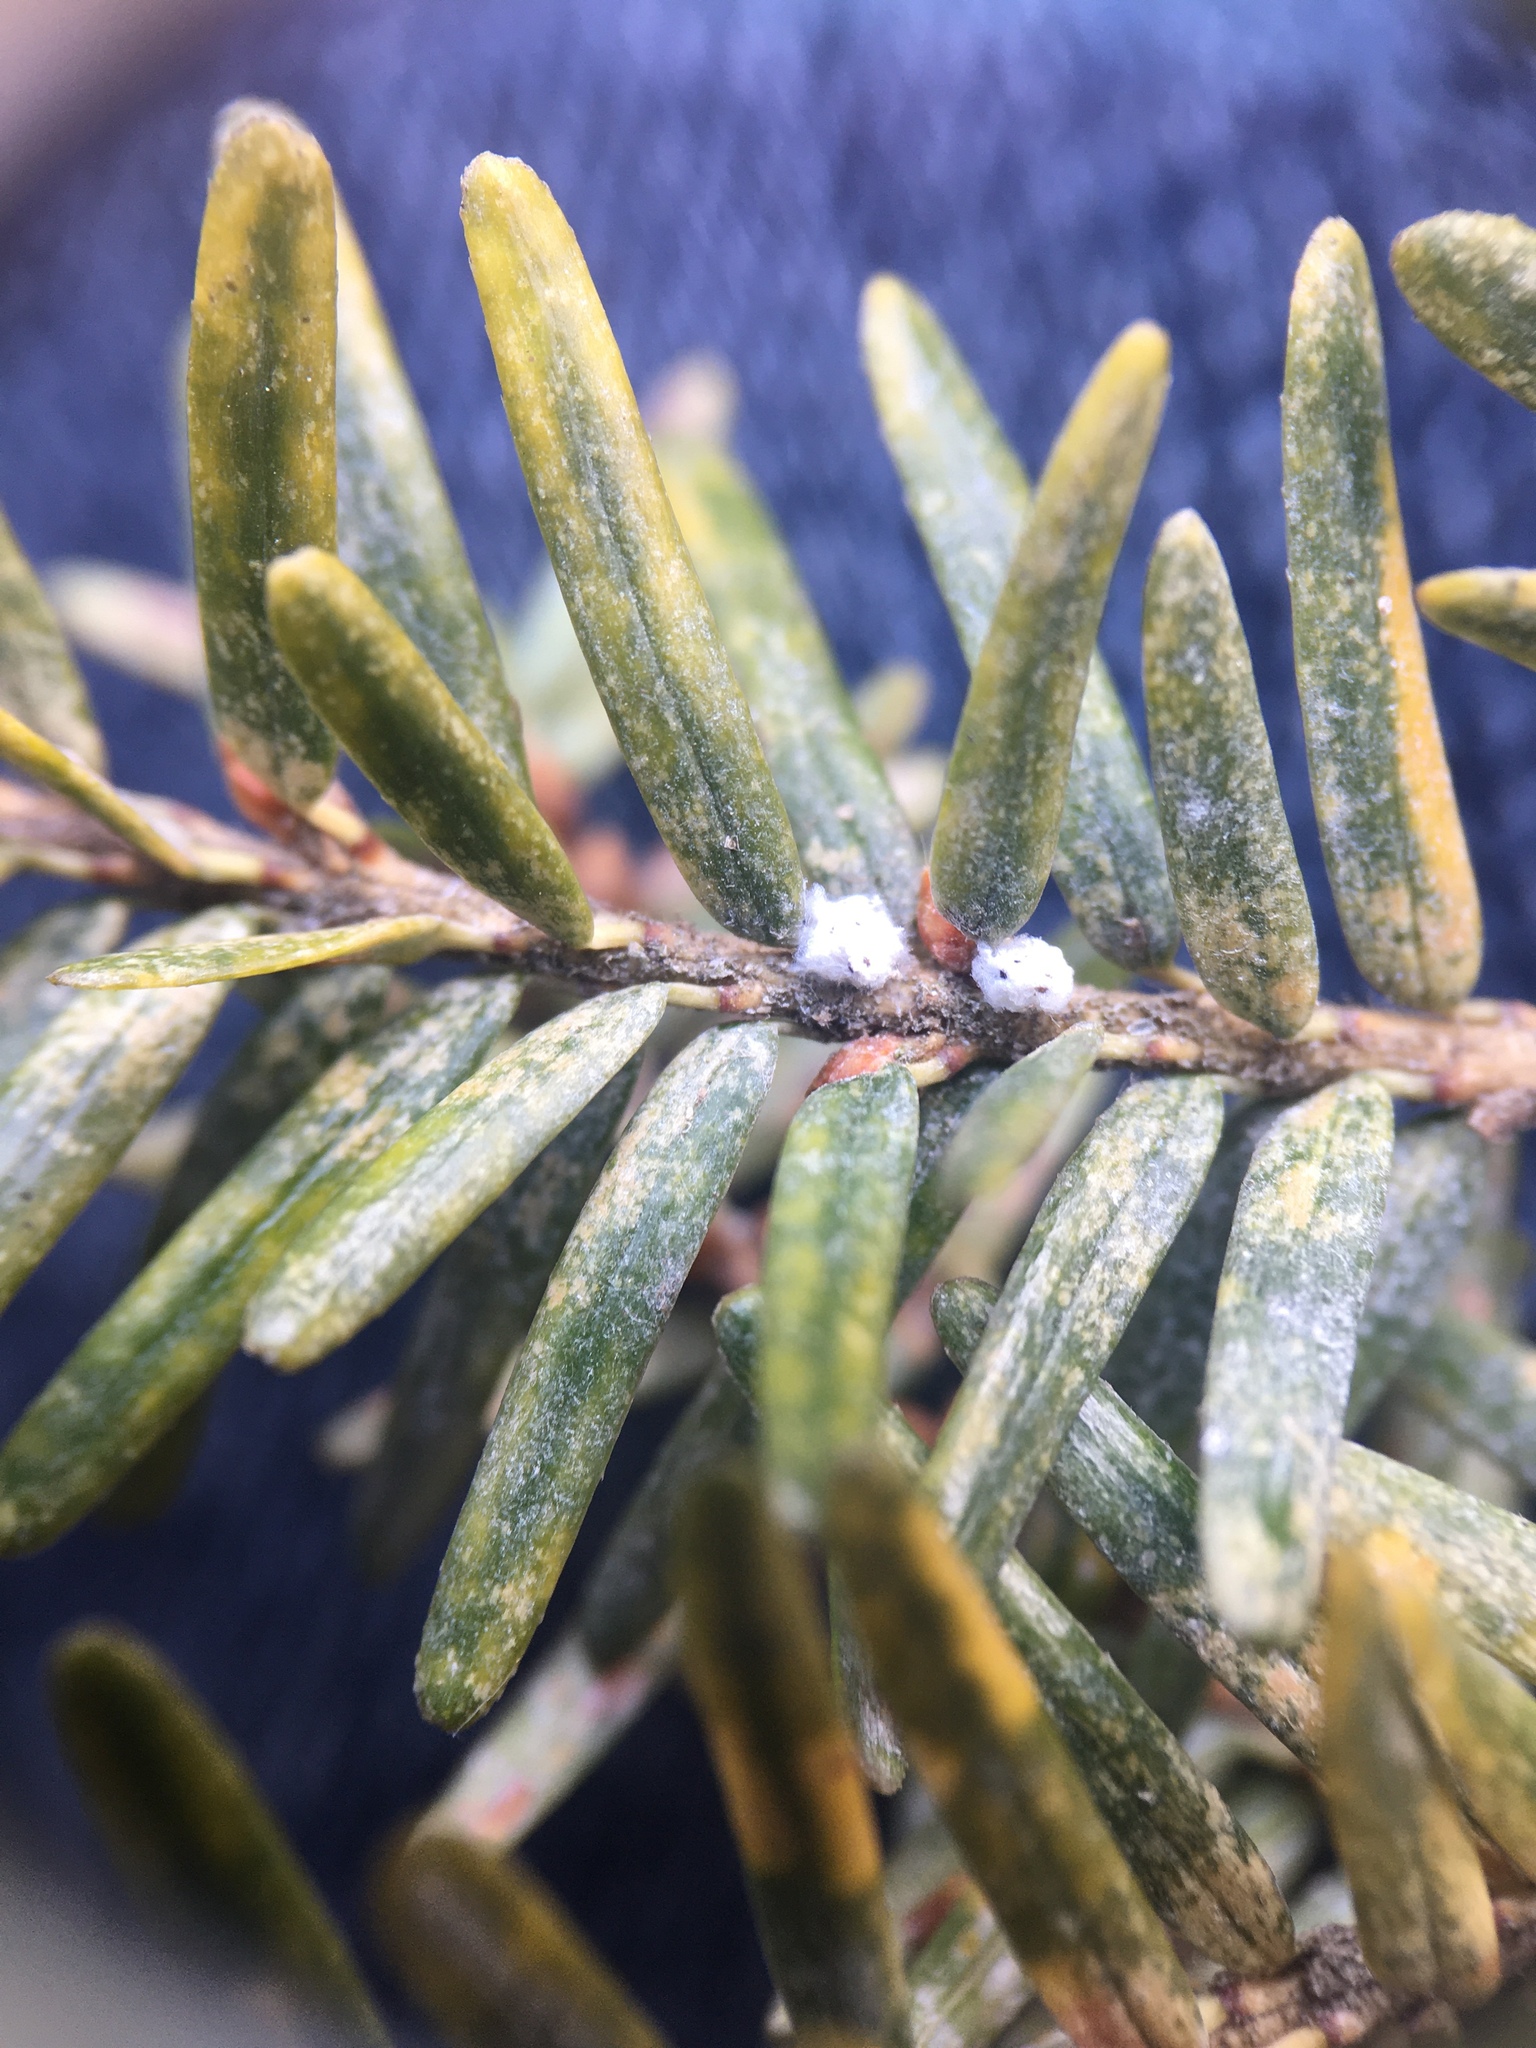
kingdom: Animalia
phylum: Arthropoda
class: Insecta
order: Hemiptera
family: Adelgidae
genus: Adelges
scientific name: Adelges tsugae
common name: Hemlock woolly adelgid
